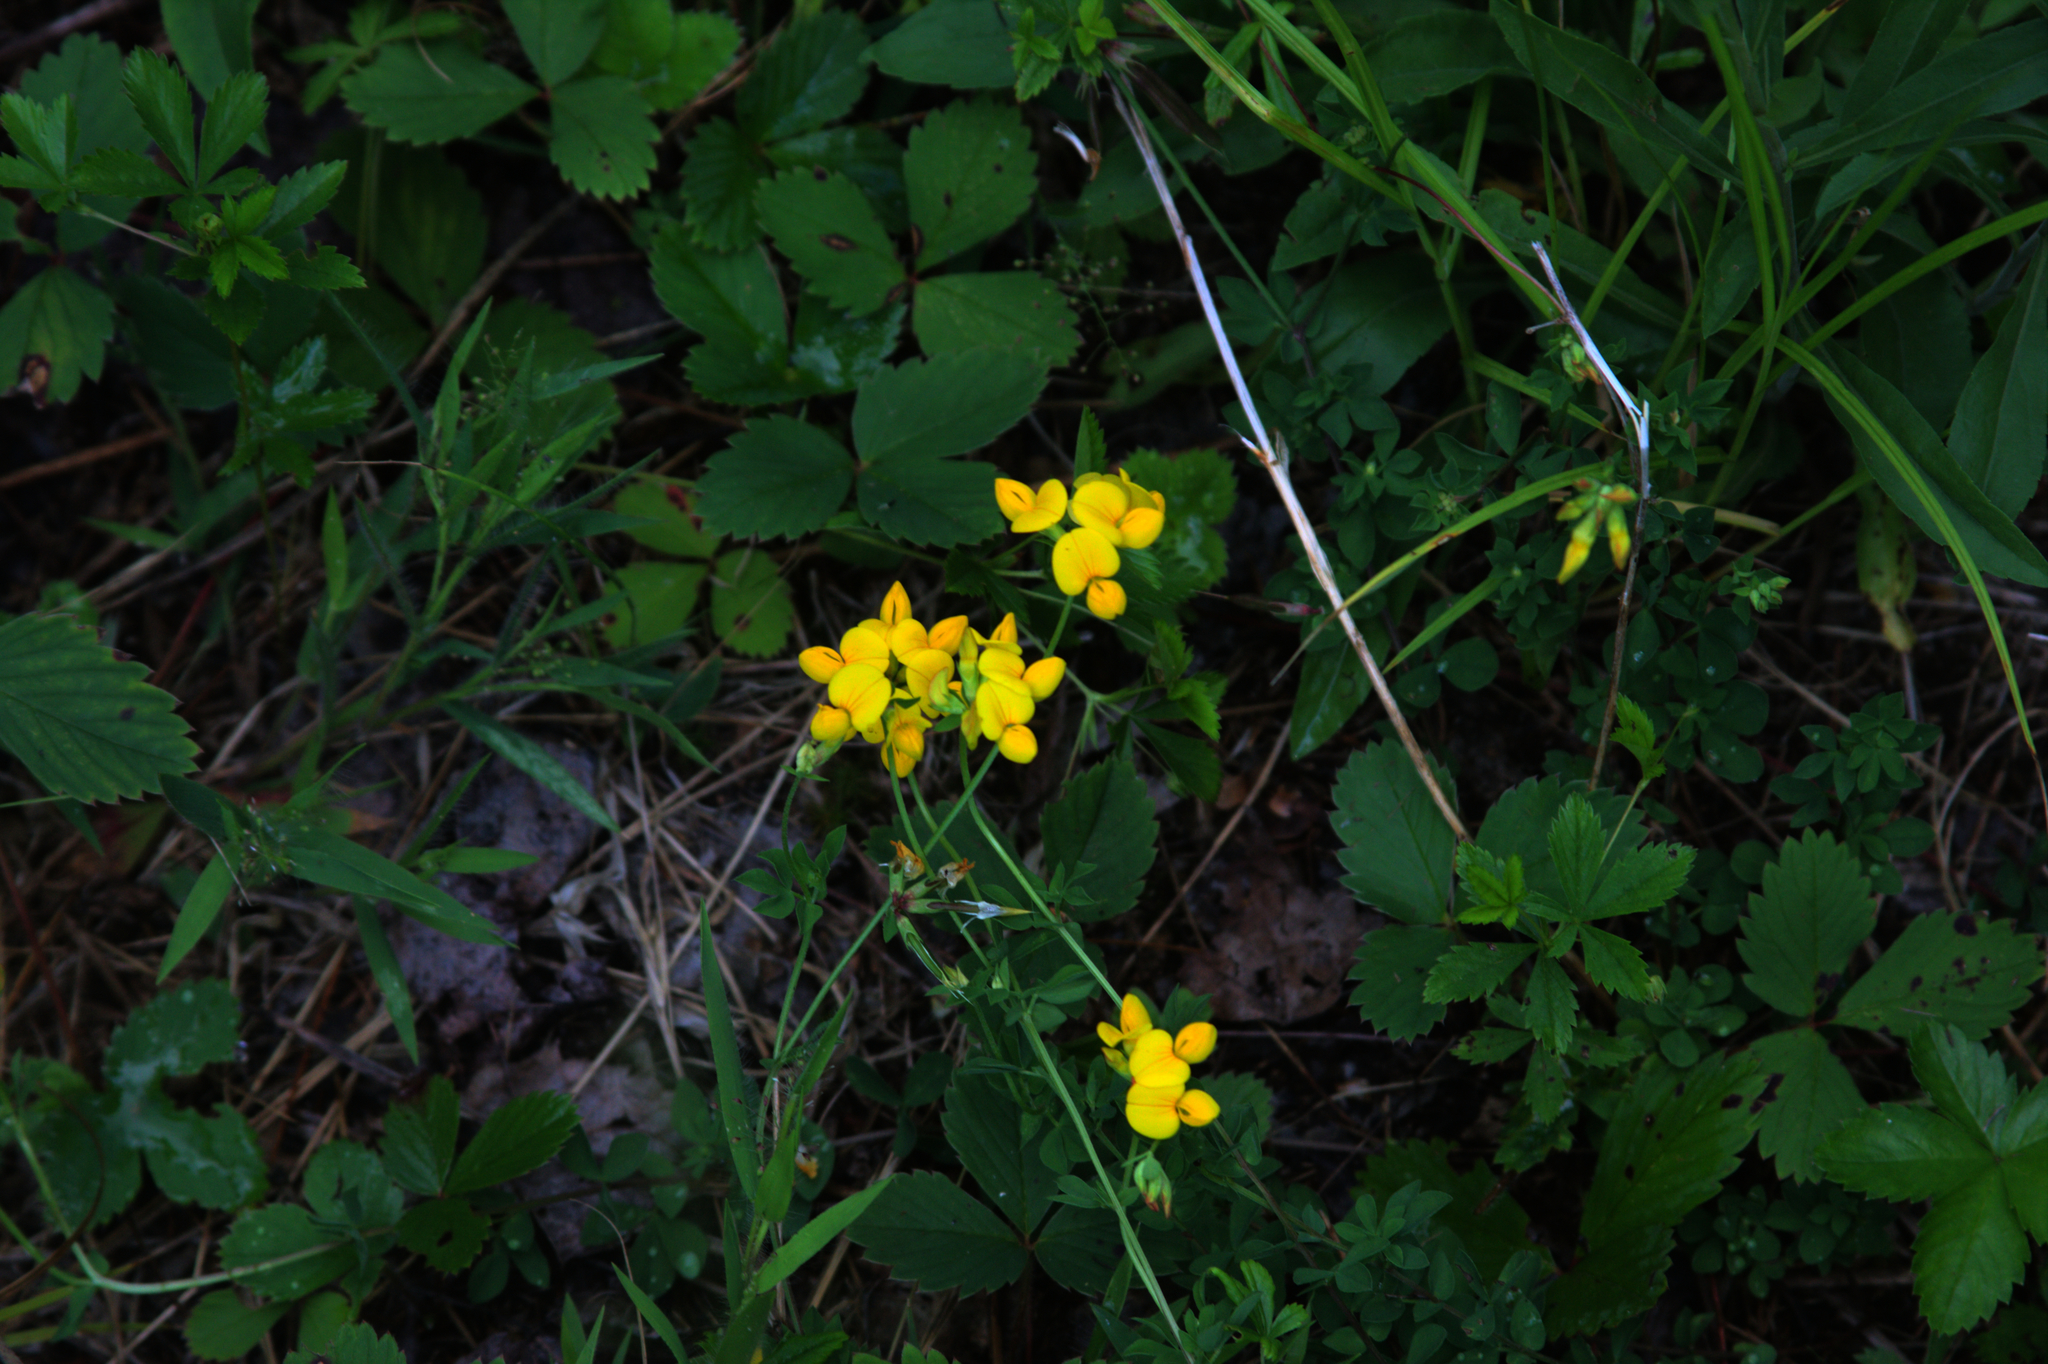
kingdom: Plantae
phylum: Tracheophyta
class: Magnoliopsida
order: Fabales
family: Fabaceae
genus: Lotus
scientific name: Lotus corniculatus
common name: Common bird's-foot-trefoil
